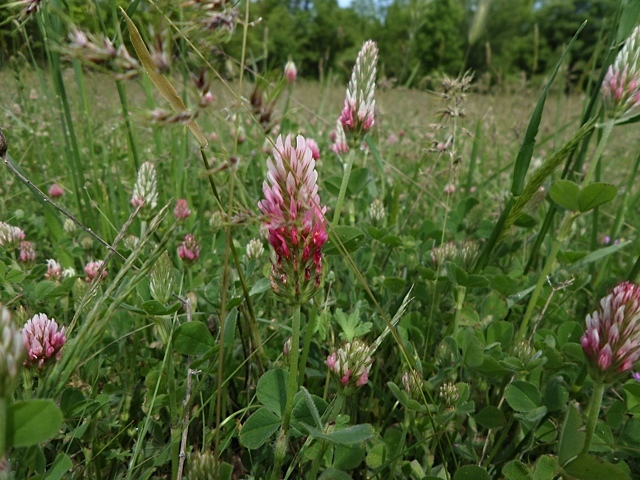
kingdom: Plantae
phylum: Tracheophyta
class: Magnoliopsida
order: Fabales
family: Fabaceae
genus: Trifolium
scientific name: Trifolium incarnatum
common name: Crimson clover
